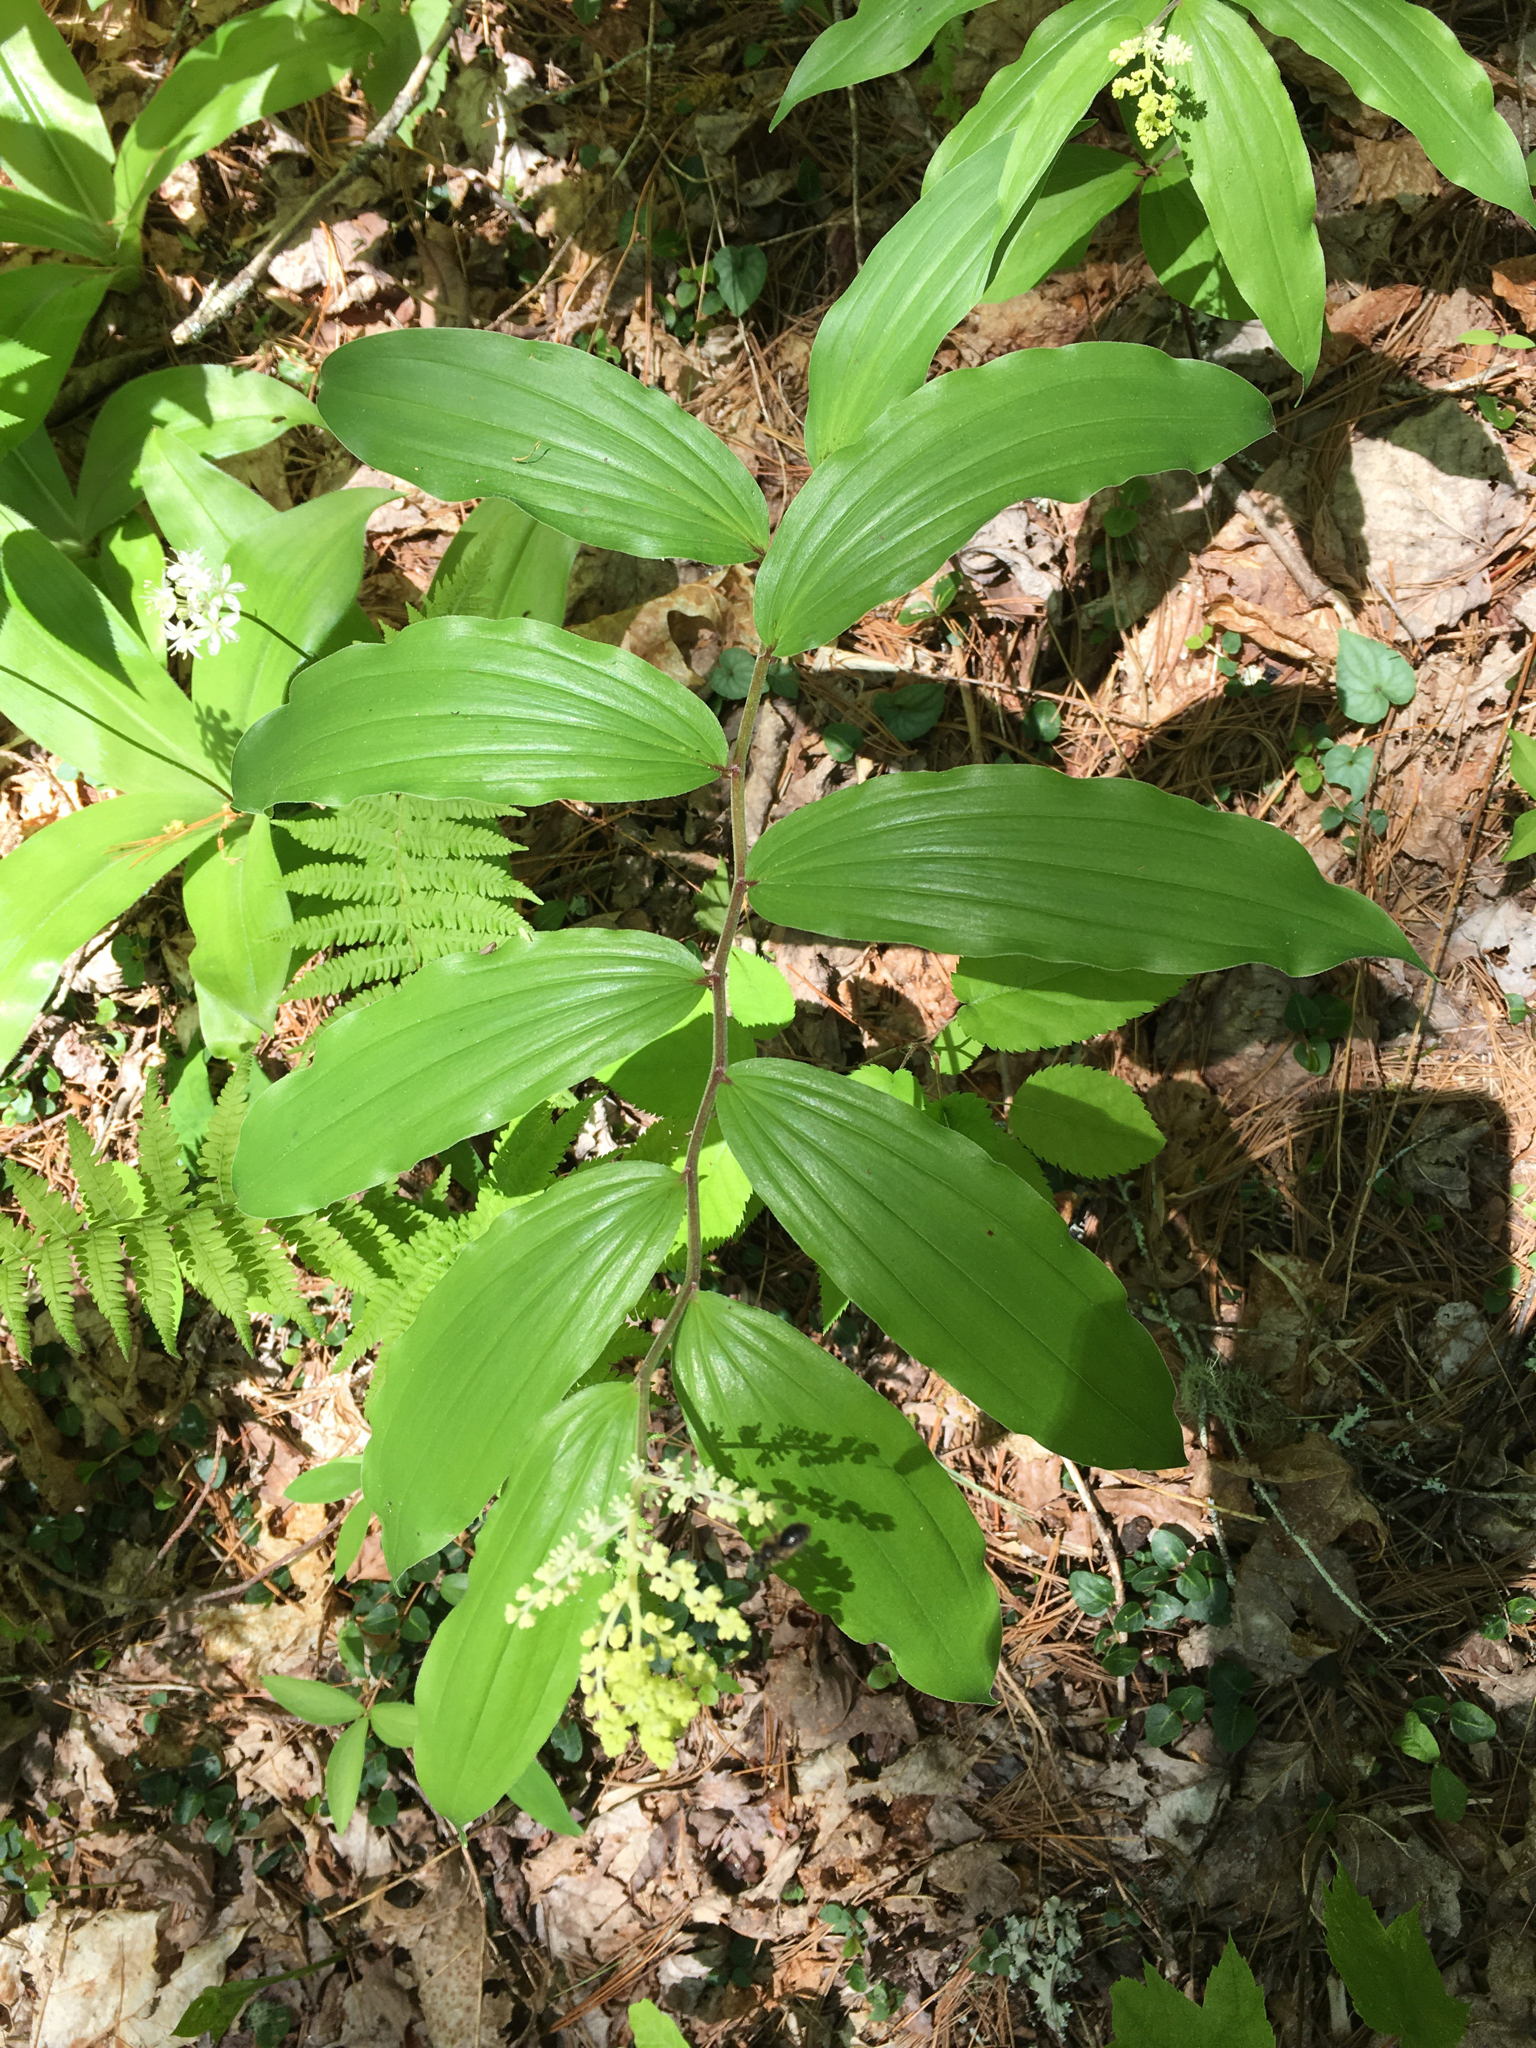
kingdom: Plantae
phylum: Tracheophyta
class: Liliopsida
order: Asparagales
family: Asparagaceae
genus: Maianthemum
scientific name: Maianthemum racemosum
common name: False spikenard
